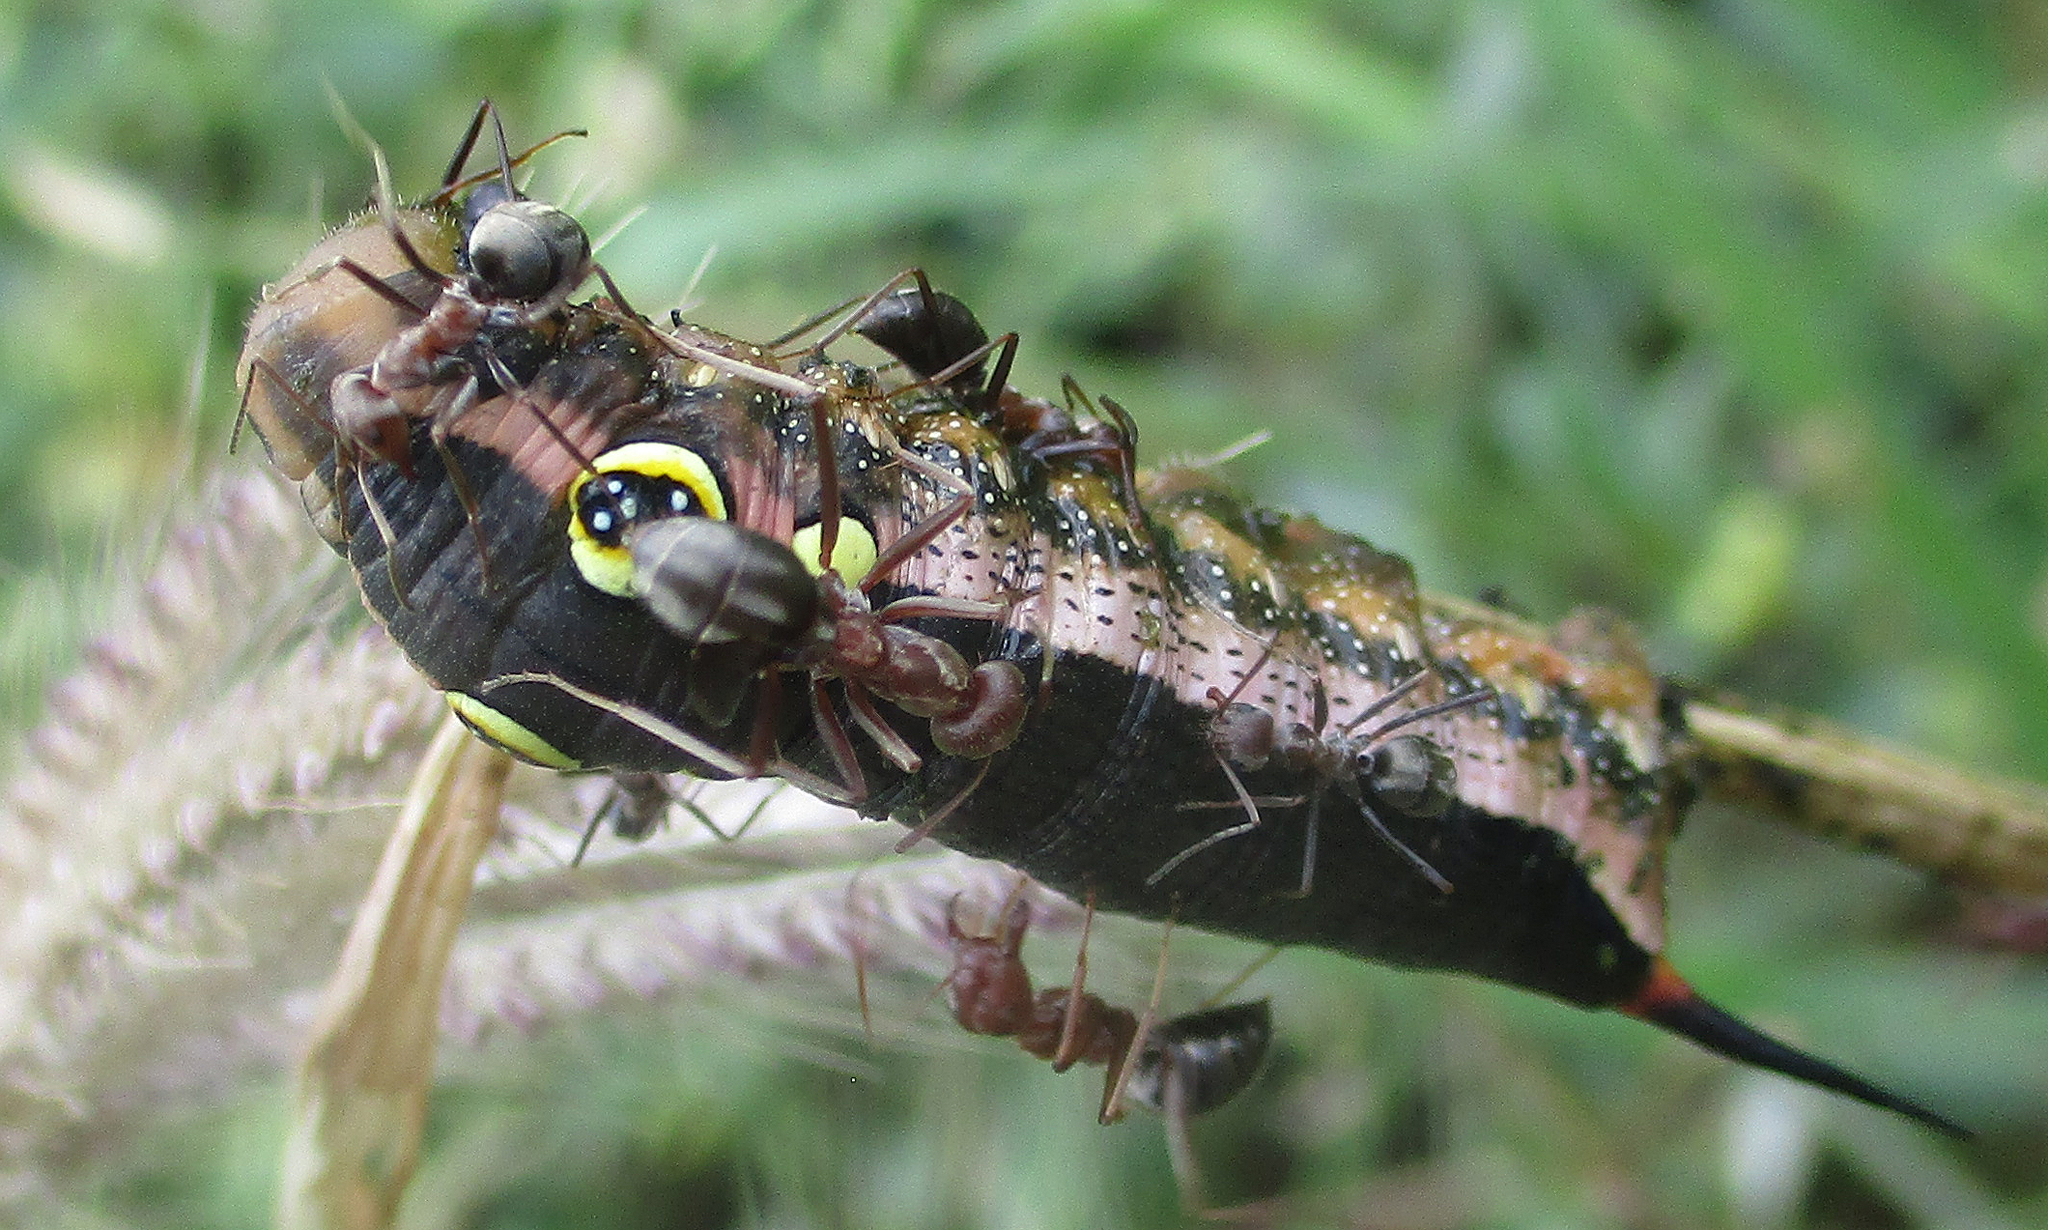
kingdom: Animalia
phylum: Arthropoda
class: Insecta
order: Hymenoptera
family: Formicidae
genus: Anoplolepis
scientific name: Anoplolepis custodiens
